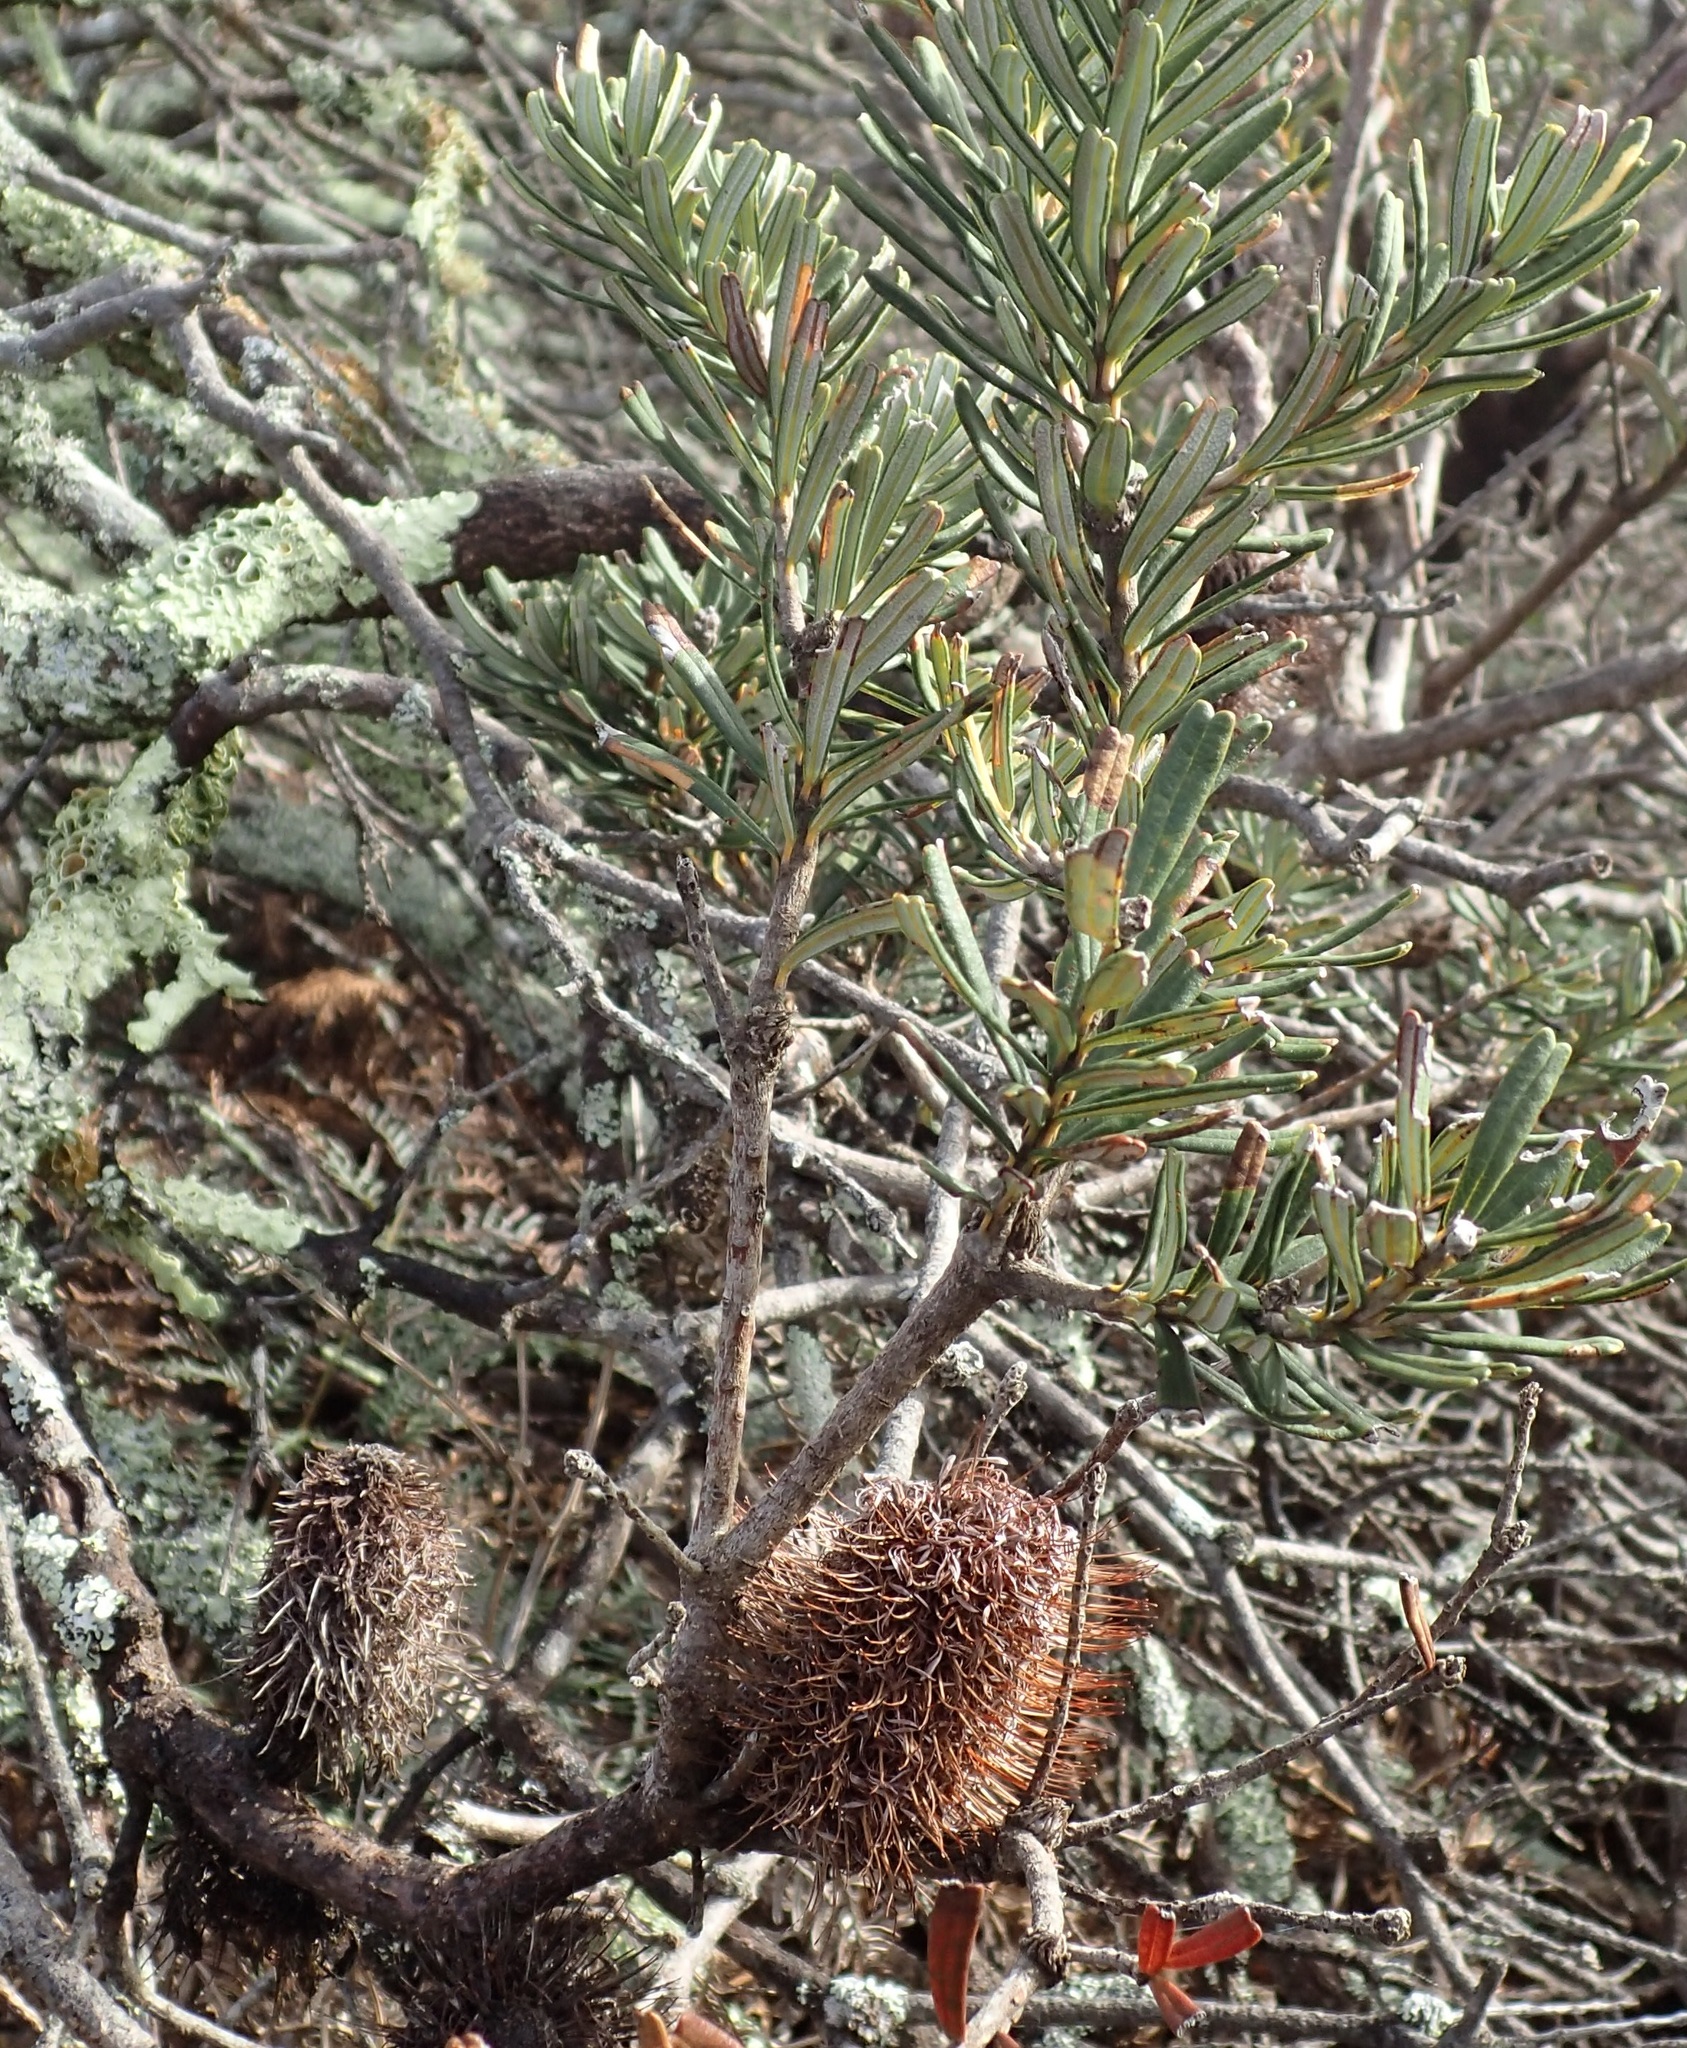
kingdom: Plantae
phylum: Tracheophyta
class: Magnoliopsida
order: Proteales
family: Proteaceae
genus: Banksia
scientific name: Banksia marginata
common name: Silver banksia
